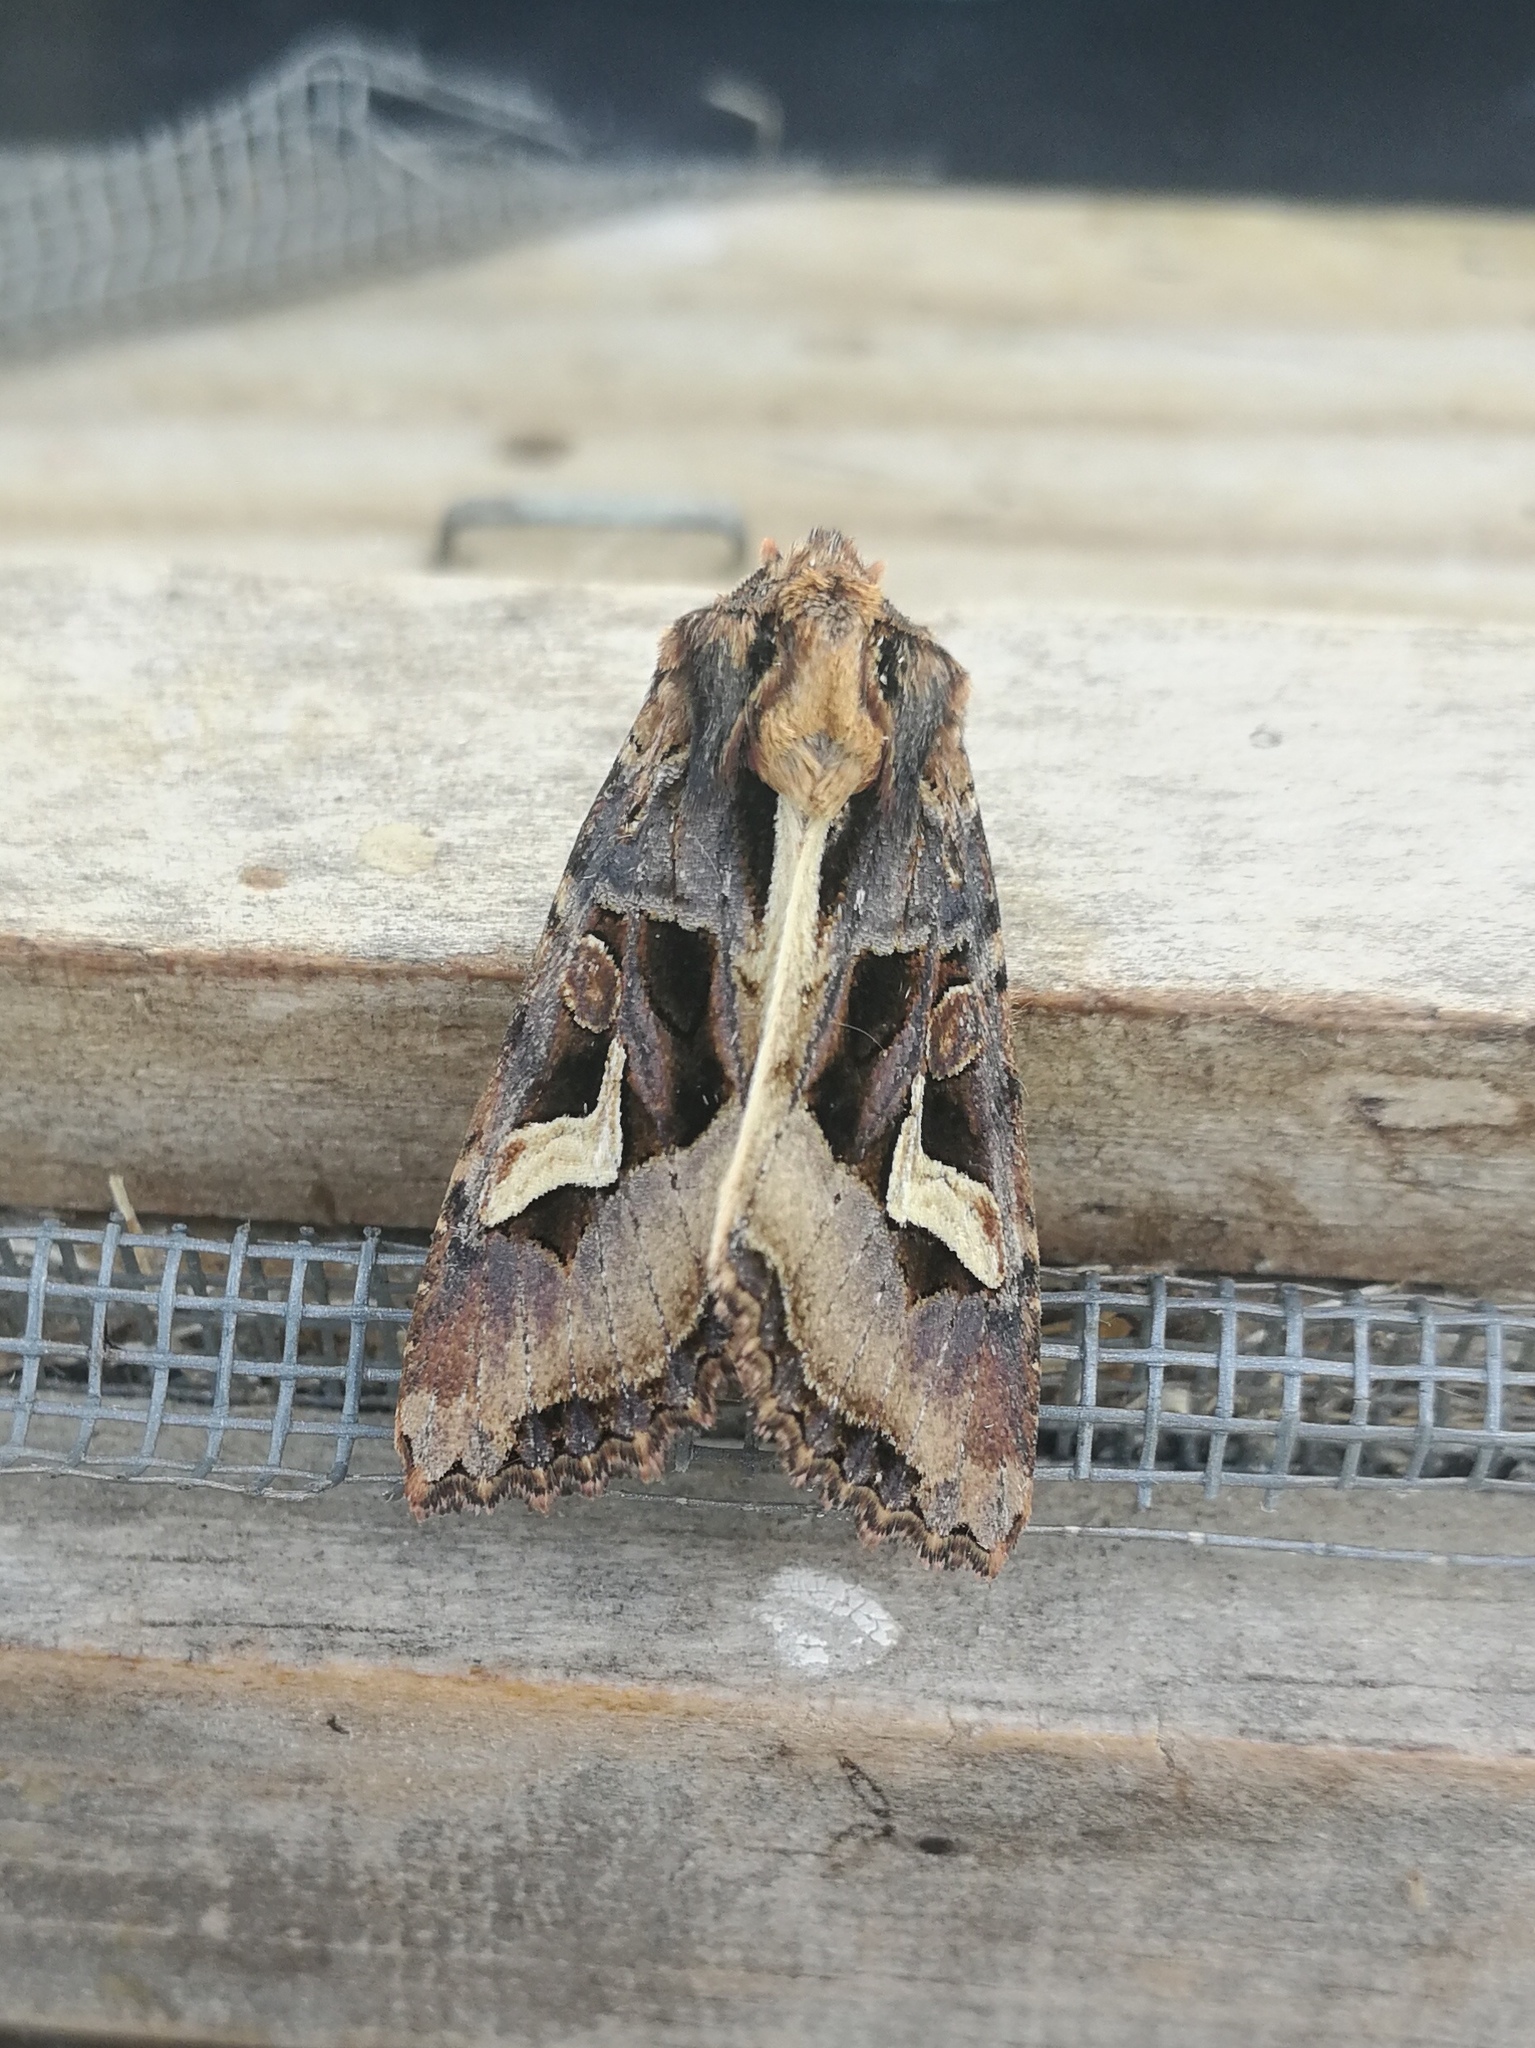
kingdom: Animalia
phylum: Arthropoda
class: Insecta
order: Lepidoptera
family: Noctuidae
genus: Trigonophora
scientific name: Trigonophora flammea
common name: Flame brocade
